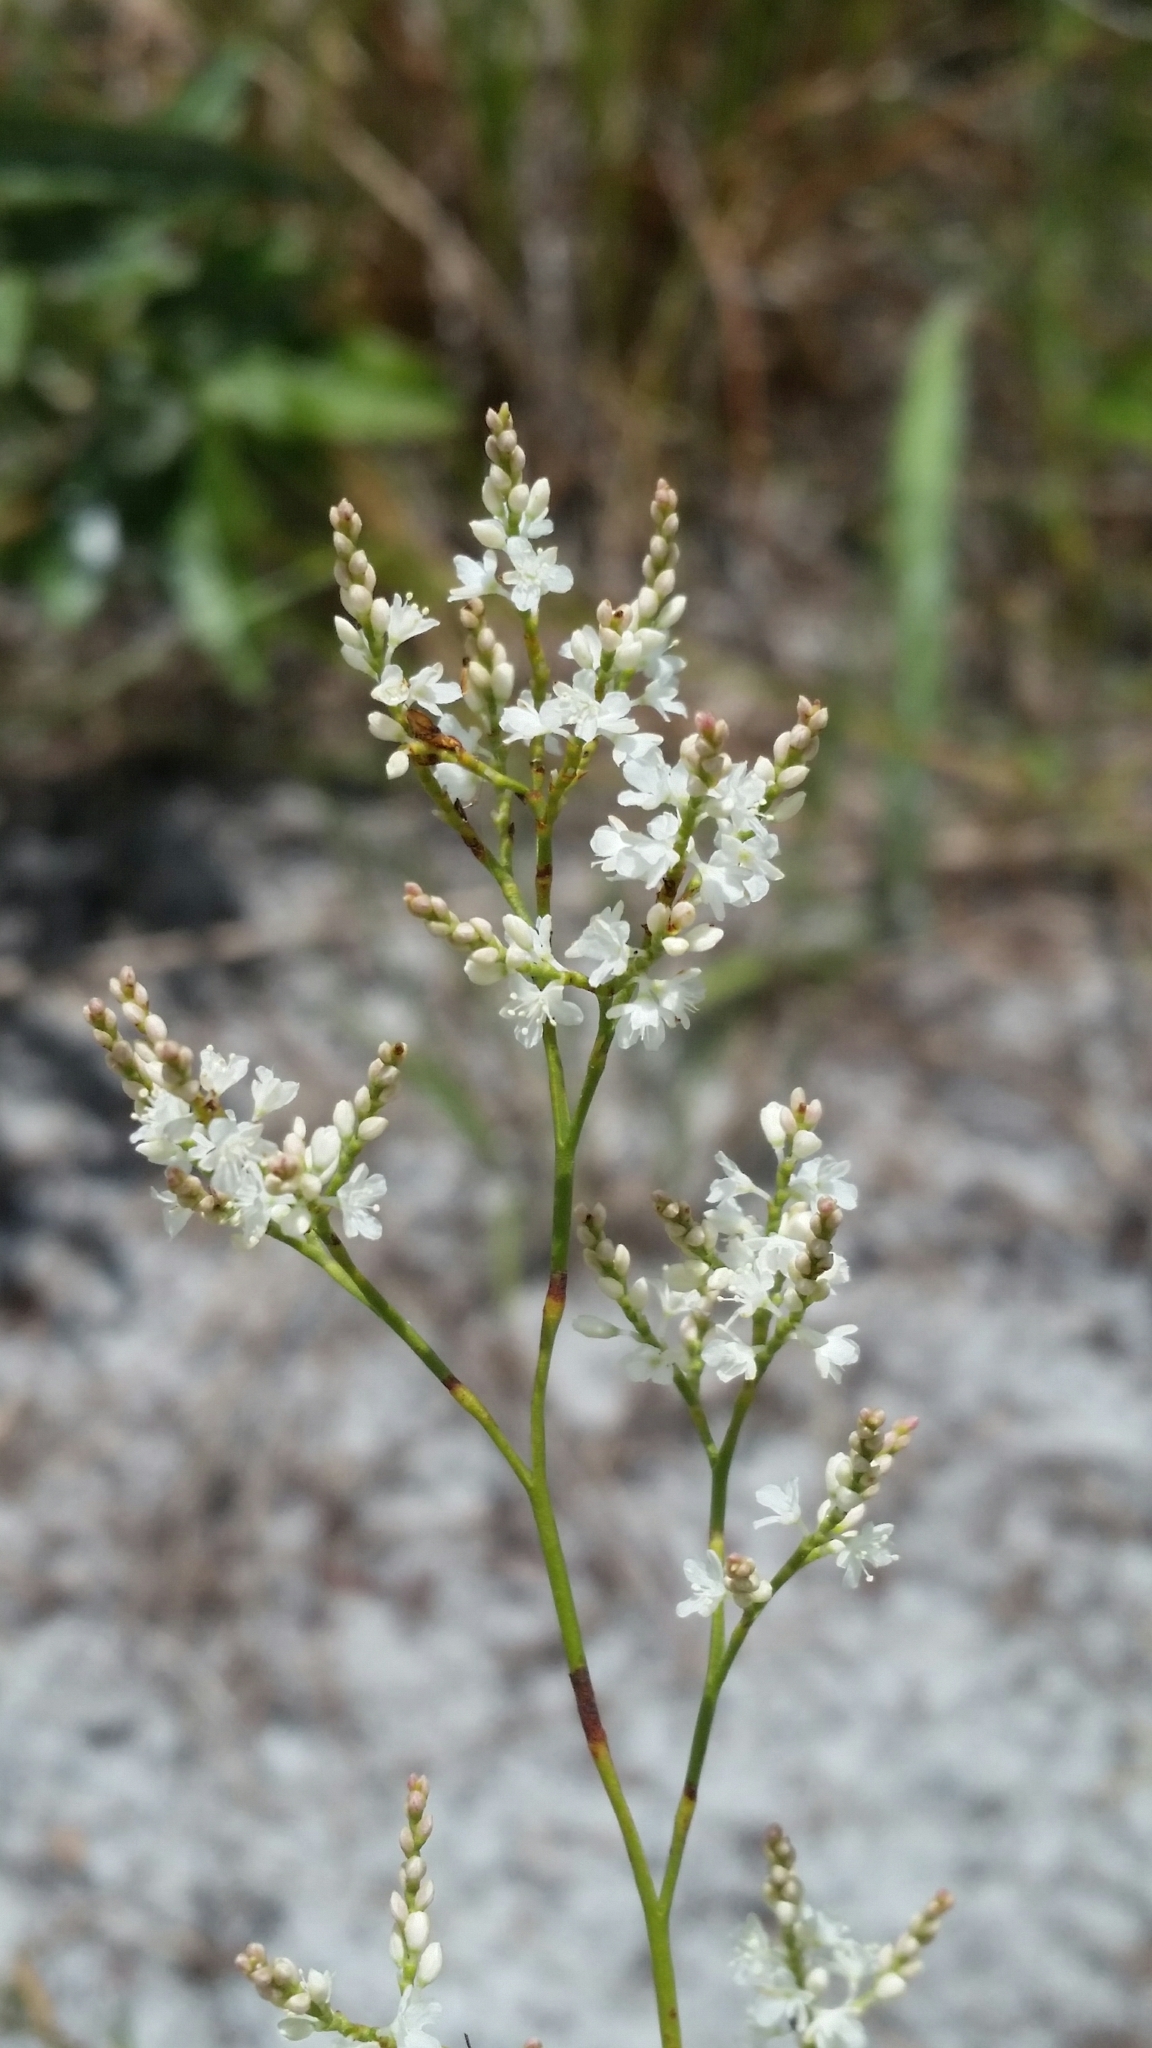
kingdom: Plantae
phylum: Tracheophyta
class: Magnoliopsida
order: Caryophyllales
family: Polygonaceae
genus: Polygonella
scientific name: Polygonella polygama
